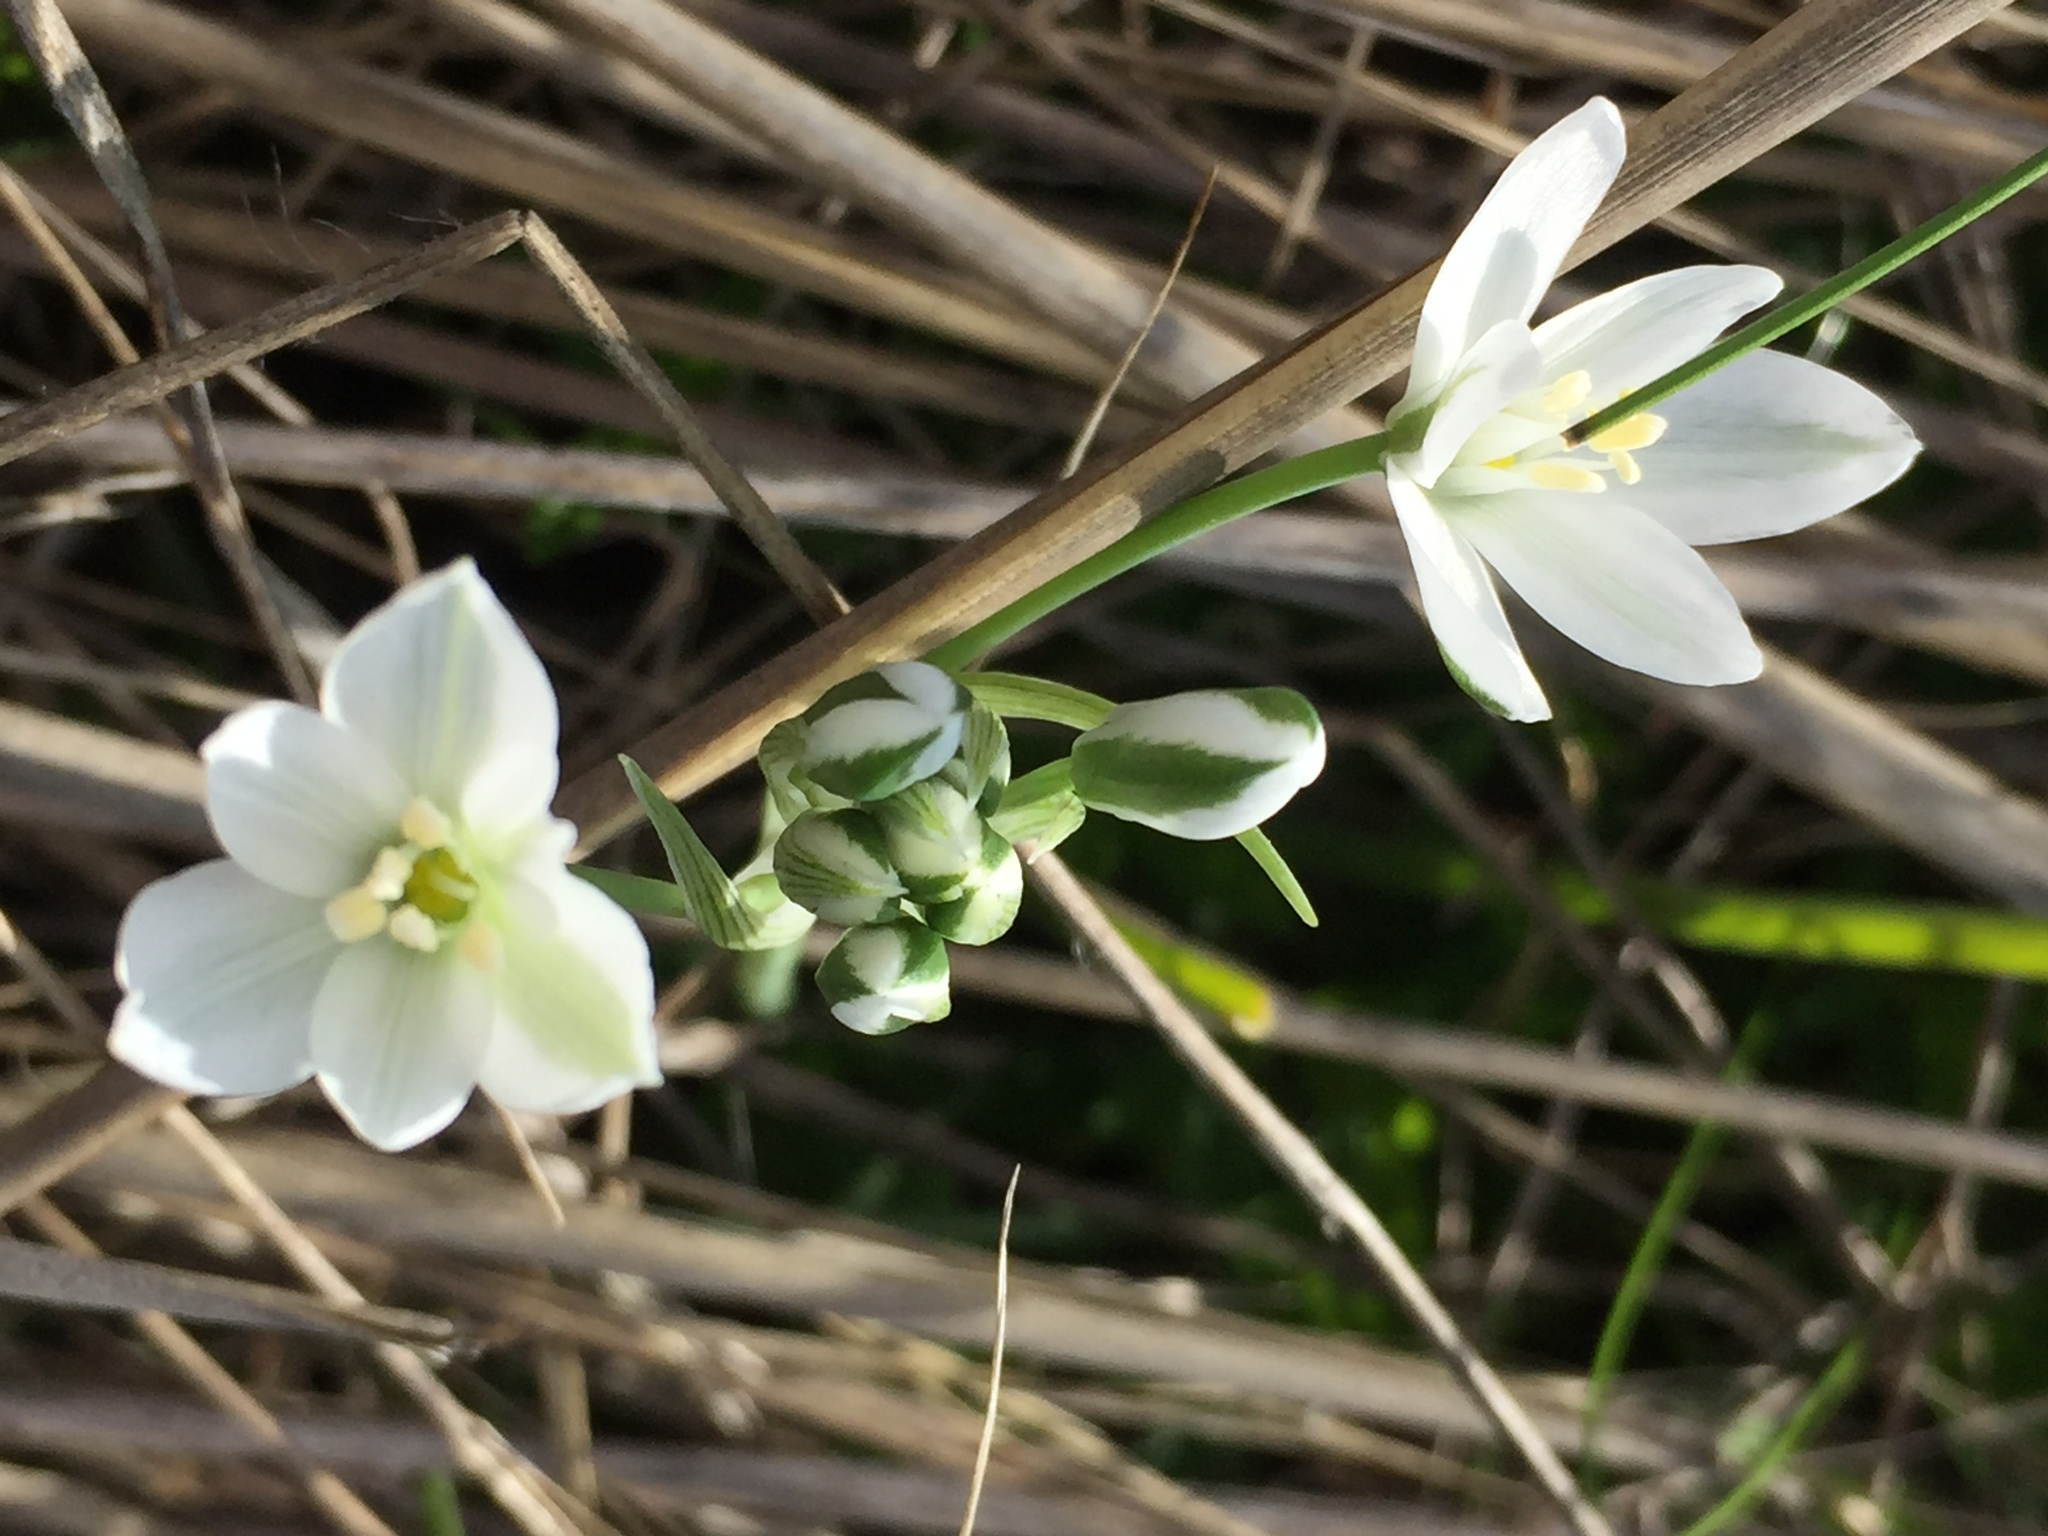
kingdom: Plantae
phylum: Tracheophyta
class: Liliopsida
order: Asparagales
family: Asparagaceae
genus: Ornithogalum
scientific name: Ornithogalum orthophyllum
